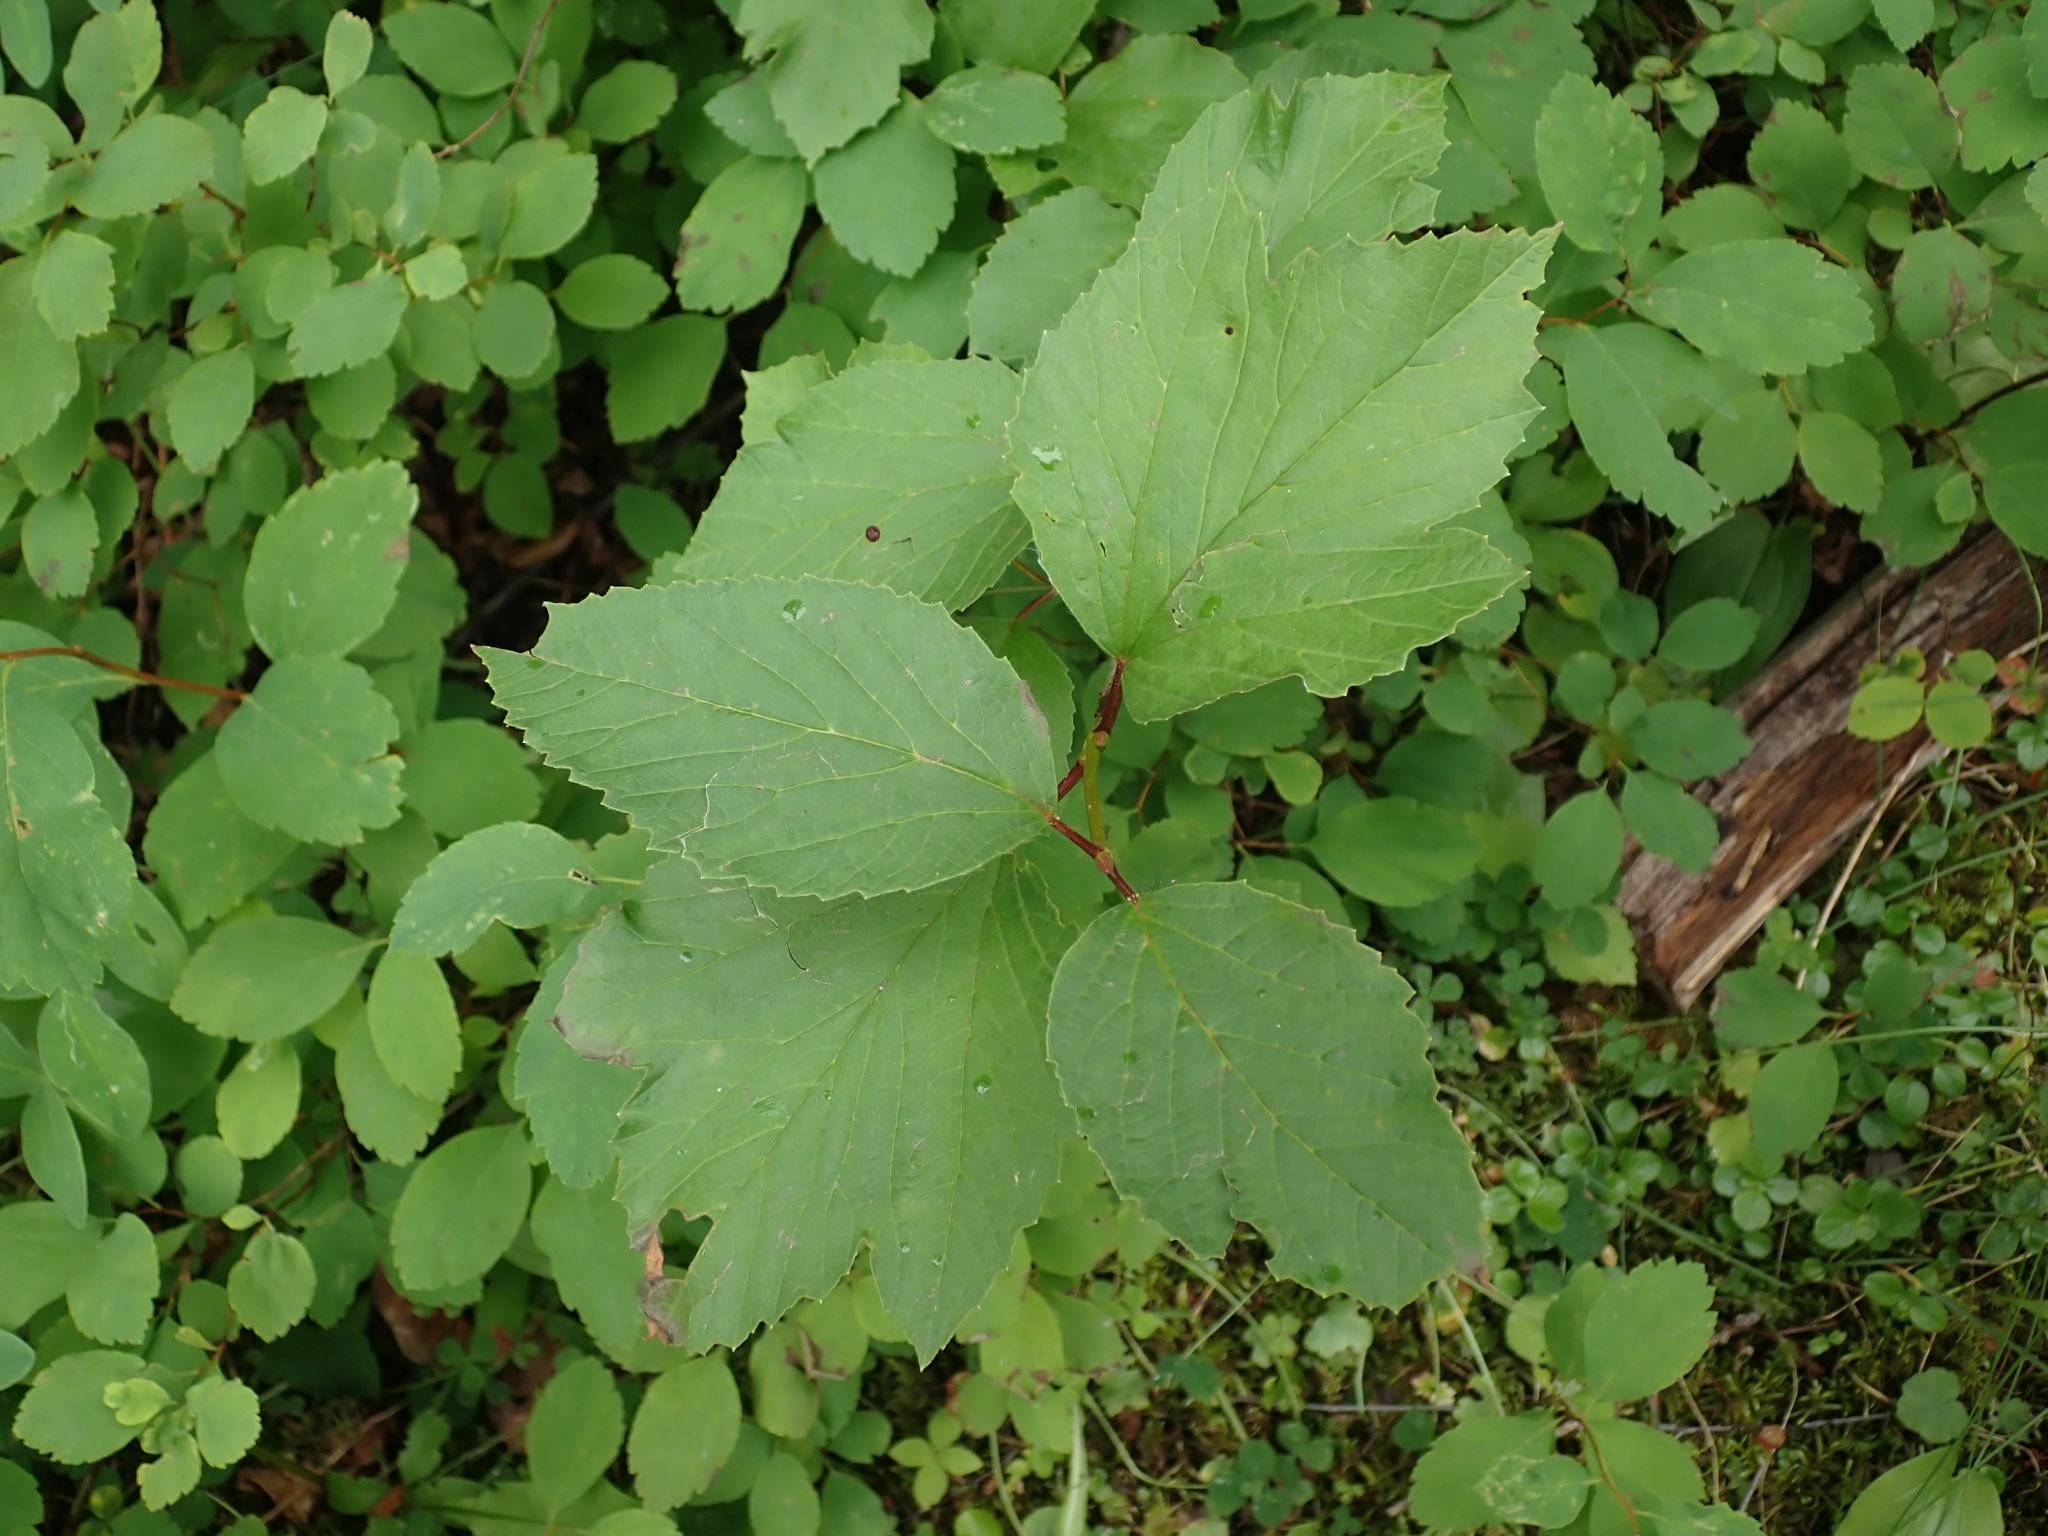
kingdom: Plantae
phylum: Tracheophyta
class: Magnoliopsida
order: Dipsacales
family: Viburnaceae
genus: Viburnum
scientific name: Viburnum edule
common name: Mooseberry
